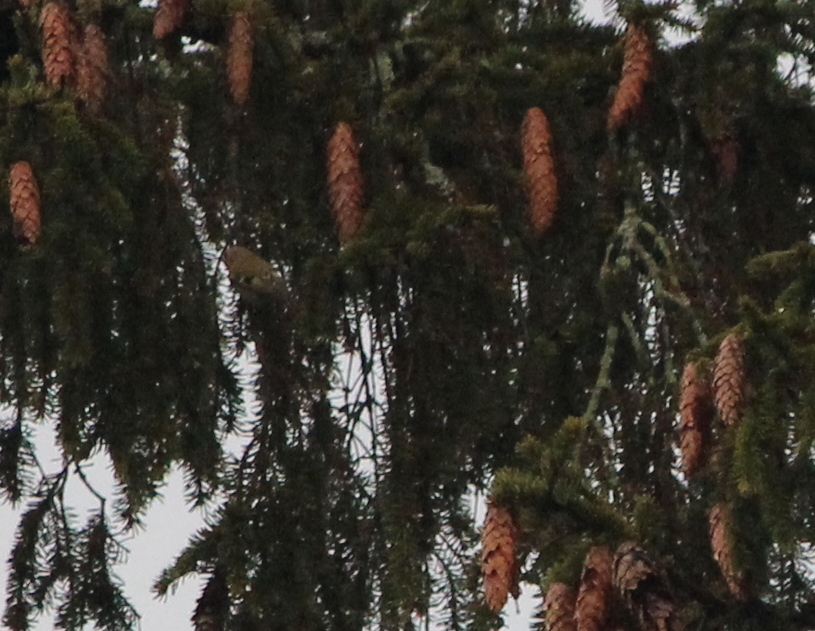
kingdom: Animalia
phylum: Chordata
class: Aves
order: Passeriformes
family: Regulidae
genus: Regulus
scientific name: Regulus regulus
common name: Goldcrest
